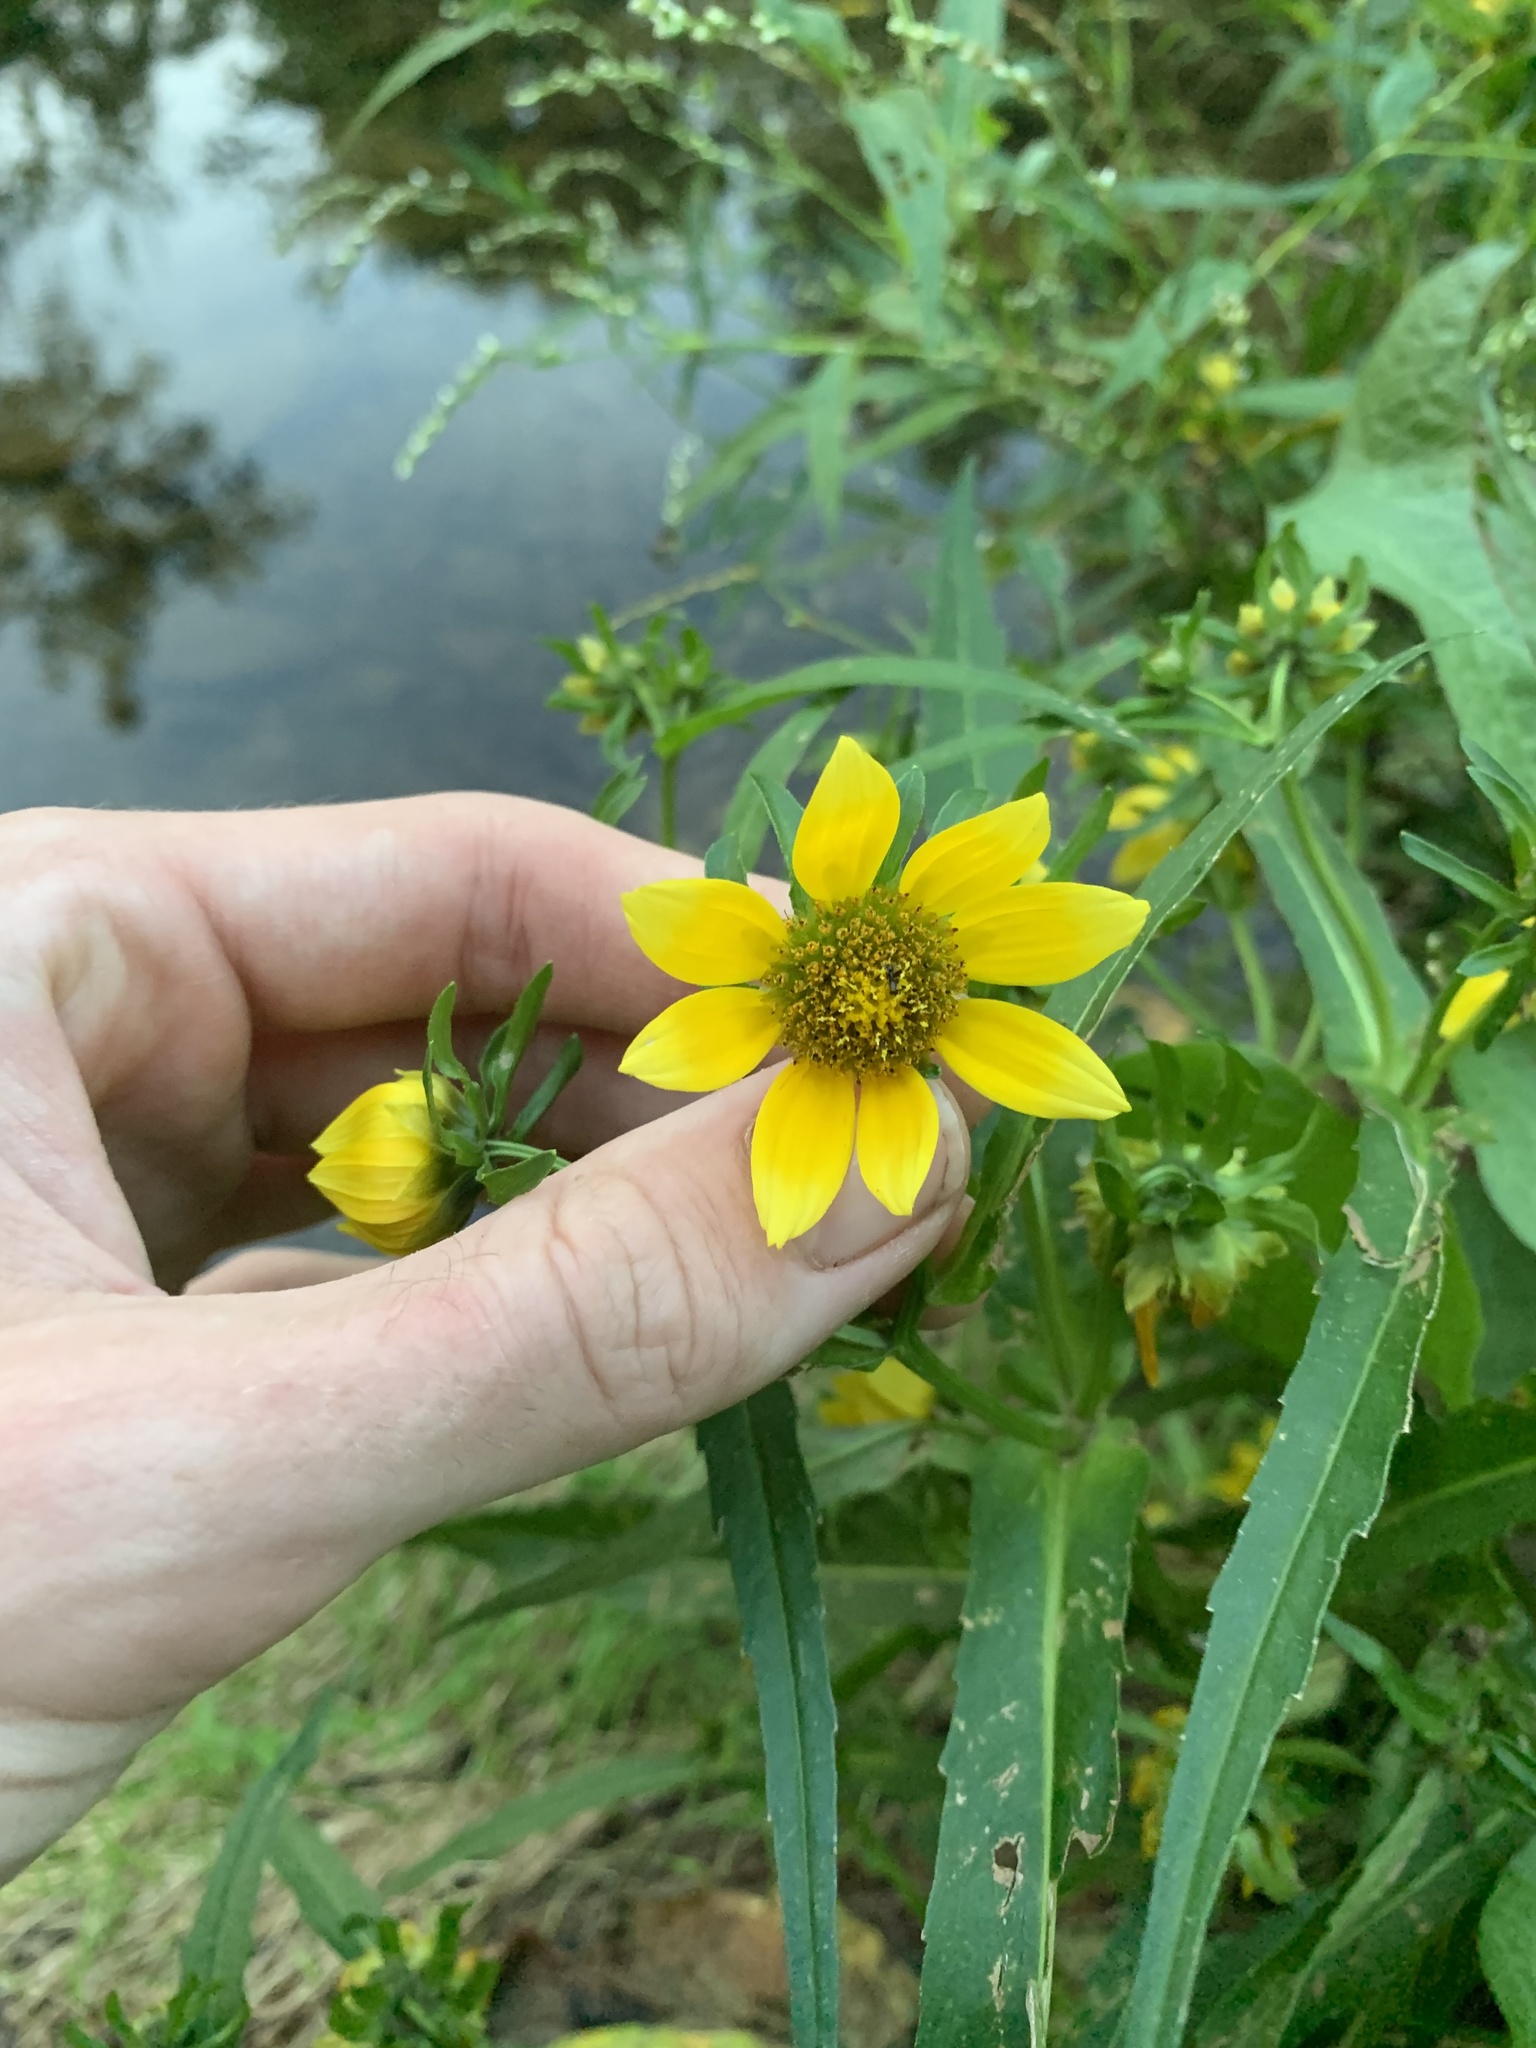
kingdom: Plantae
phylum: Tracheophyta
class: Magnoliopsida
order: Asterales
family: Asteraceae
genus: Bidens
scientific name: Bidens cernua
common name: Nodding bur-marigold
